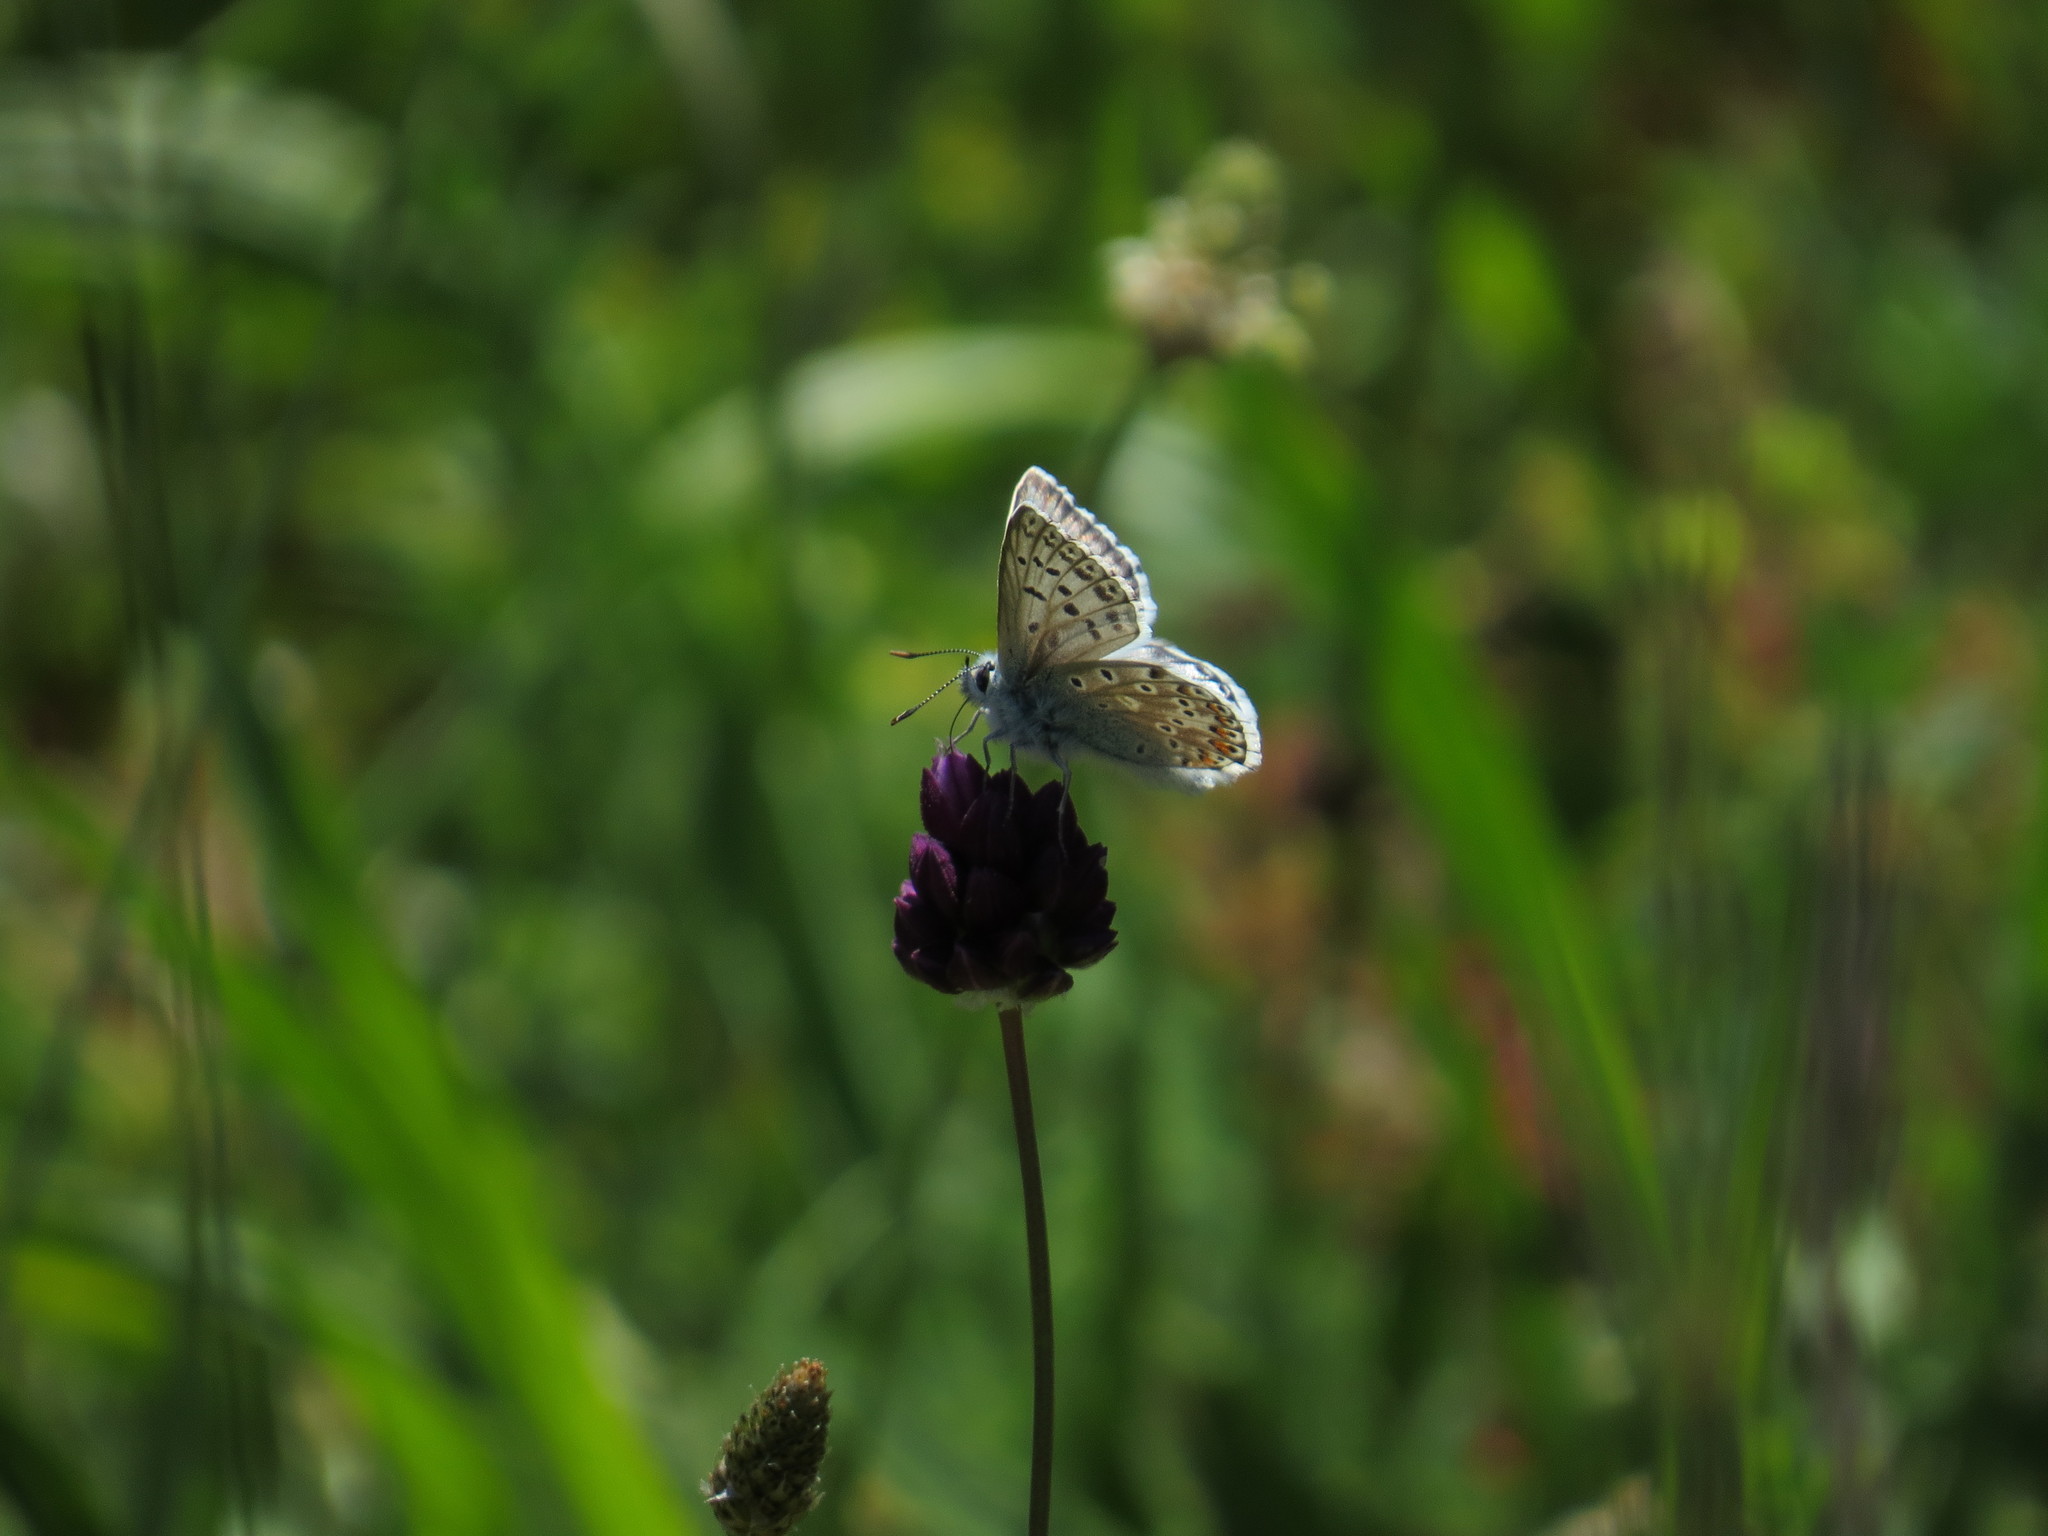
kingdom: Animalia
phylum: Arthropoda
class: Insecta
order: Lepidoptera
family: Lycaenidae
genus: Lysandra
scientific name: Lysandra hispana
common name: Provence chalkhill blue
